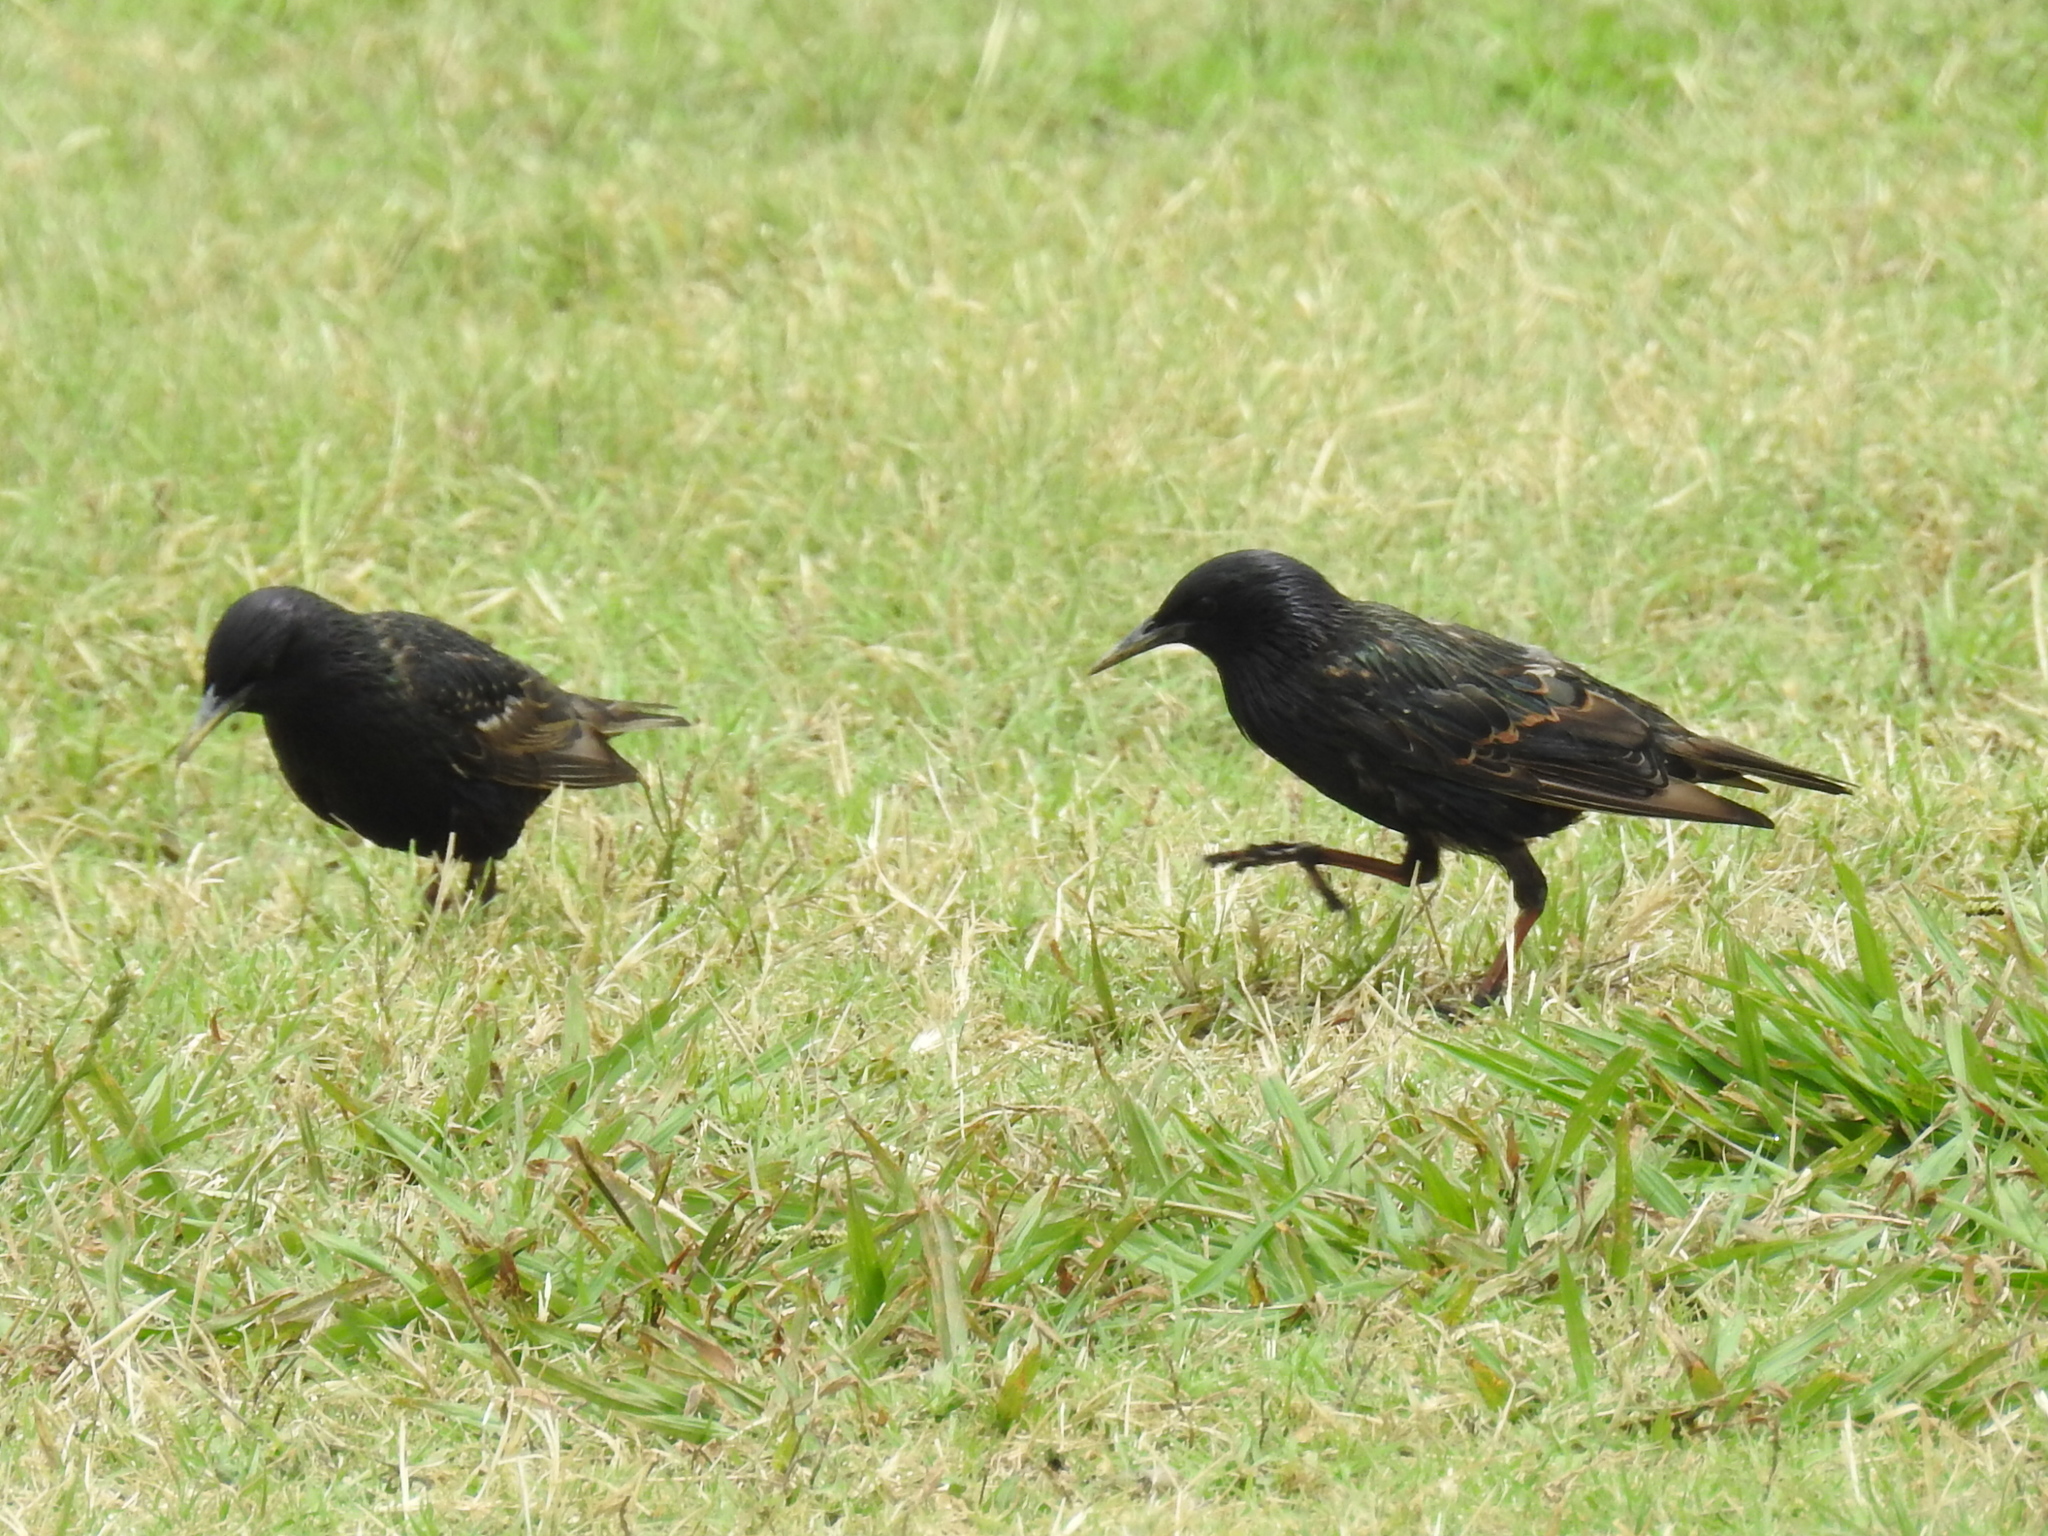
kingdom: Animalia
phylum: Chordata
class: Aves
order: Passeriformes
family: Sturnidae
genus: Sturnus
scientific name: Sturnus vulgaris
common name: Common starling
